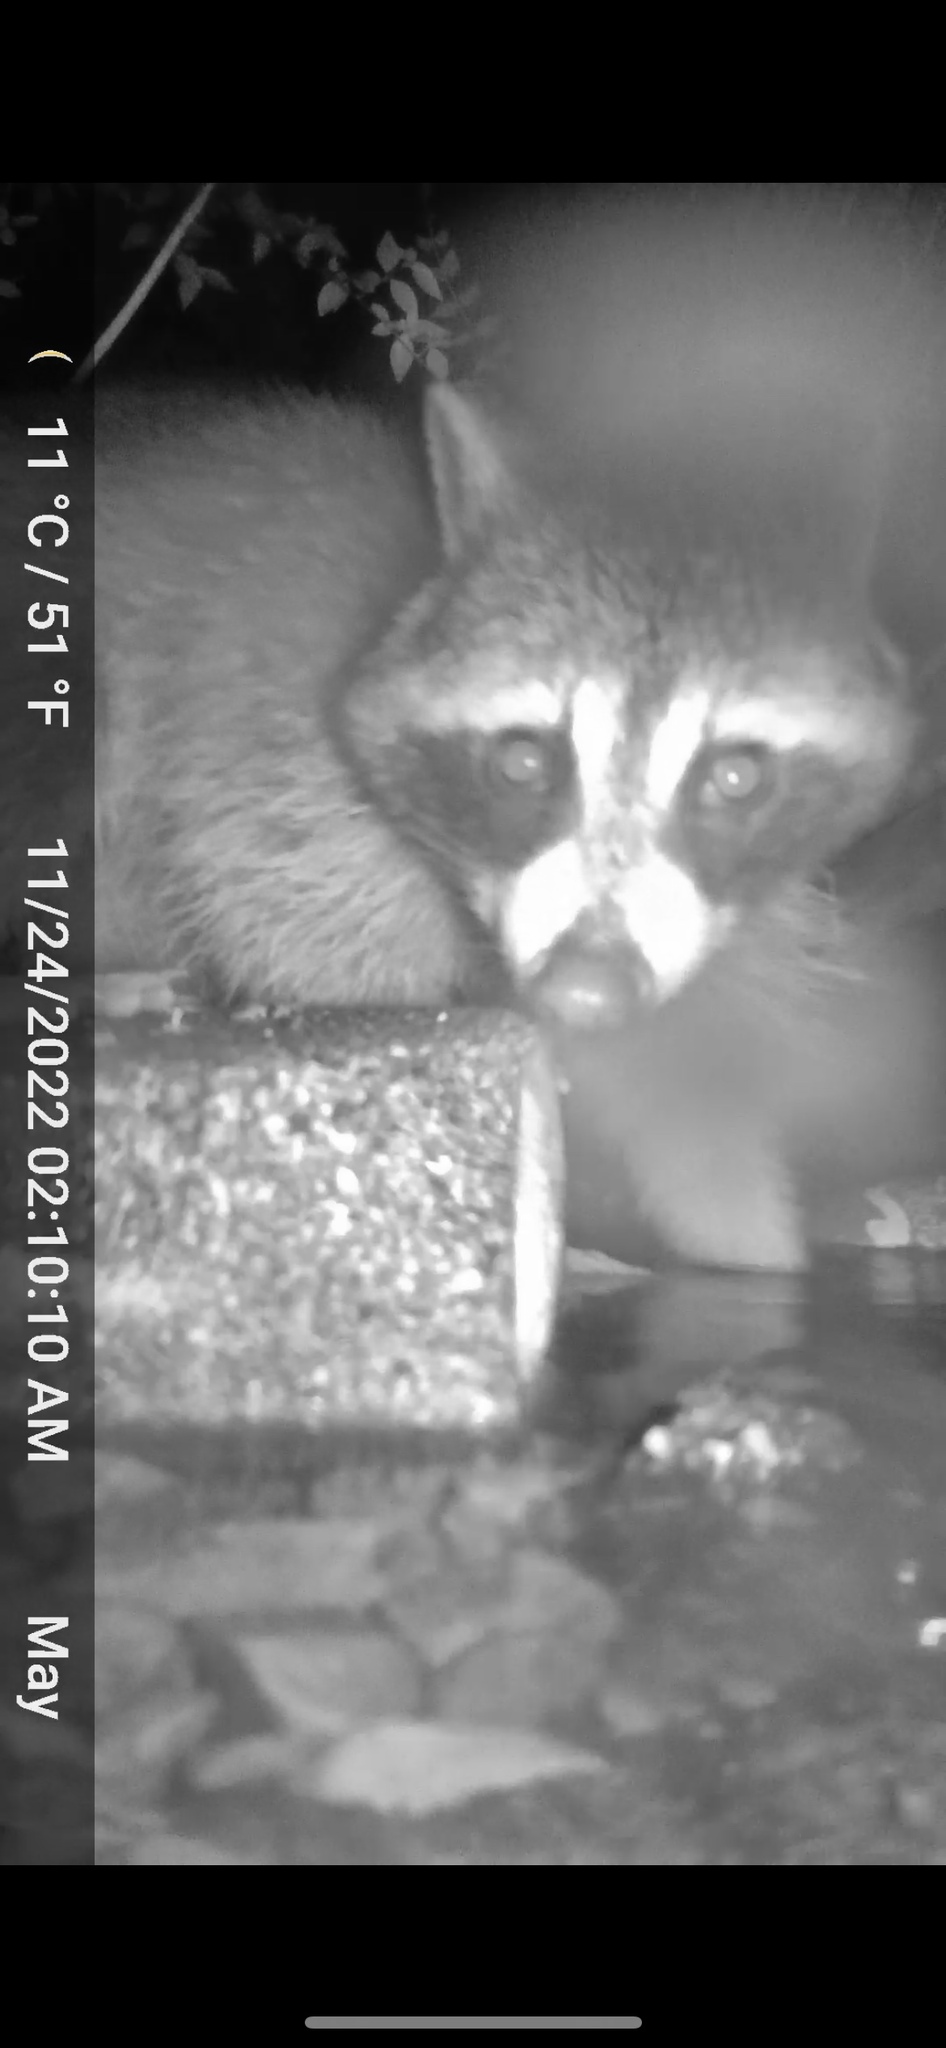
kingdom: Animalia
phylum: Chordata
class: Mammalia
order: Carnivora
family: Procyonidae
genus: Procyon
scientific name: Procyon lotor
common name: Raccoon
